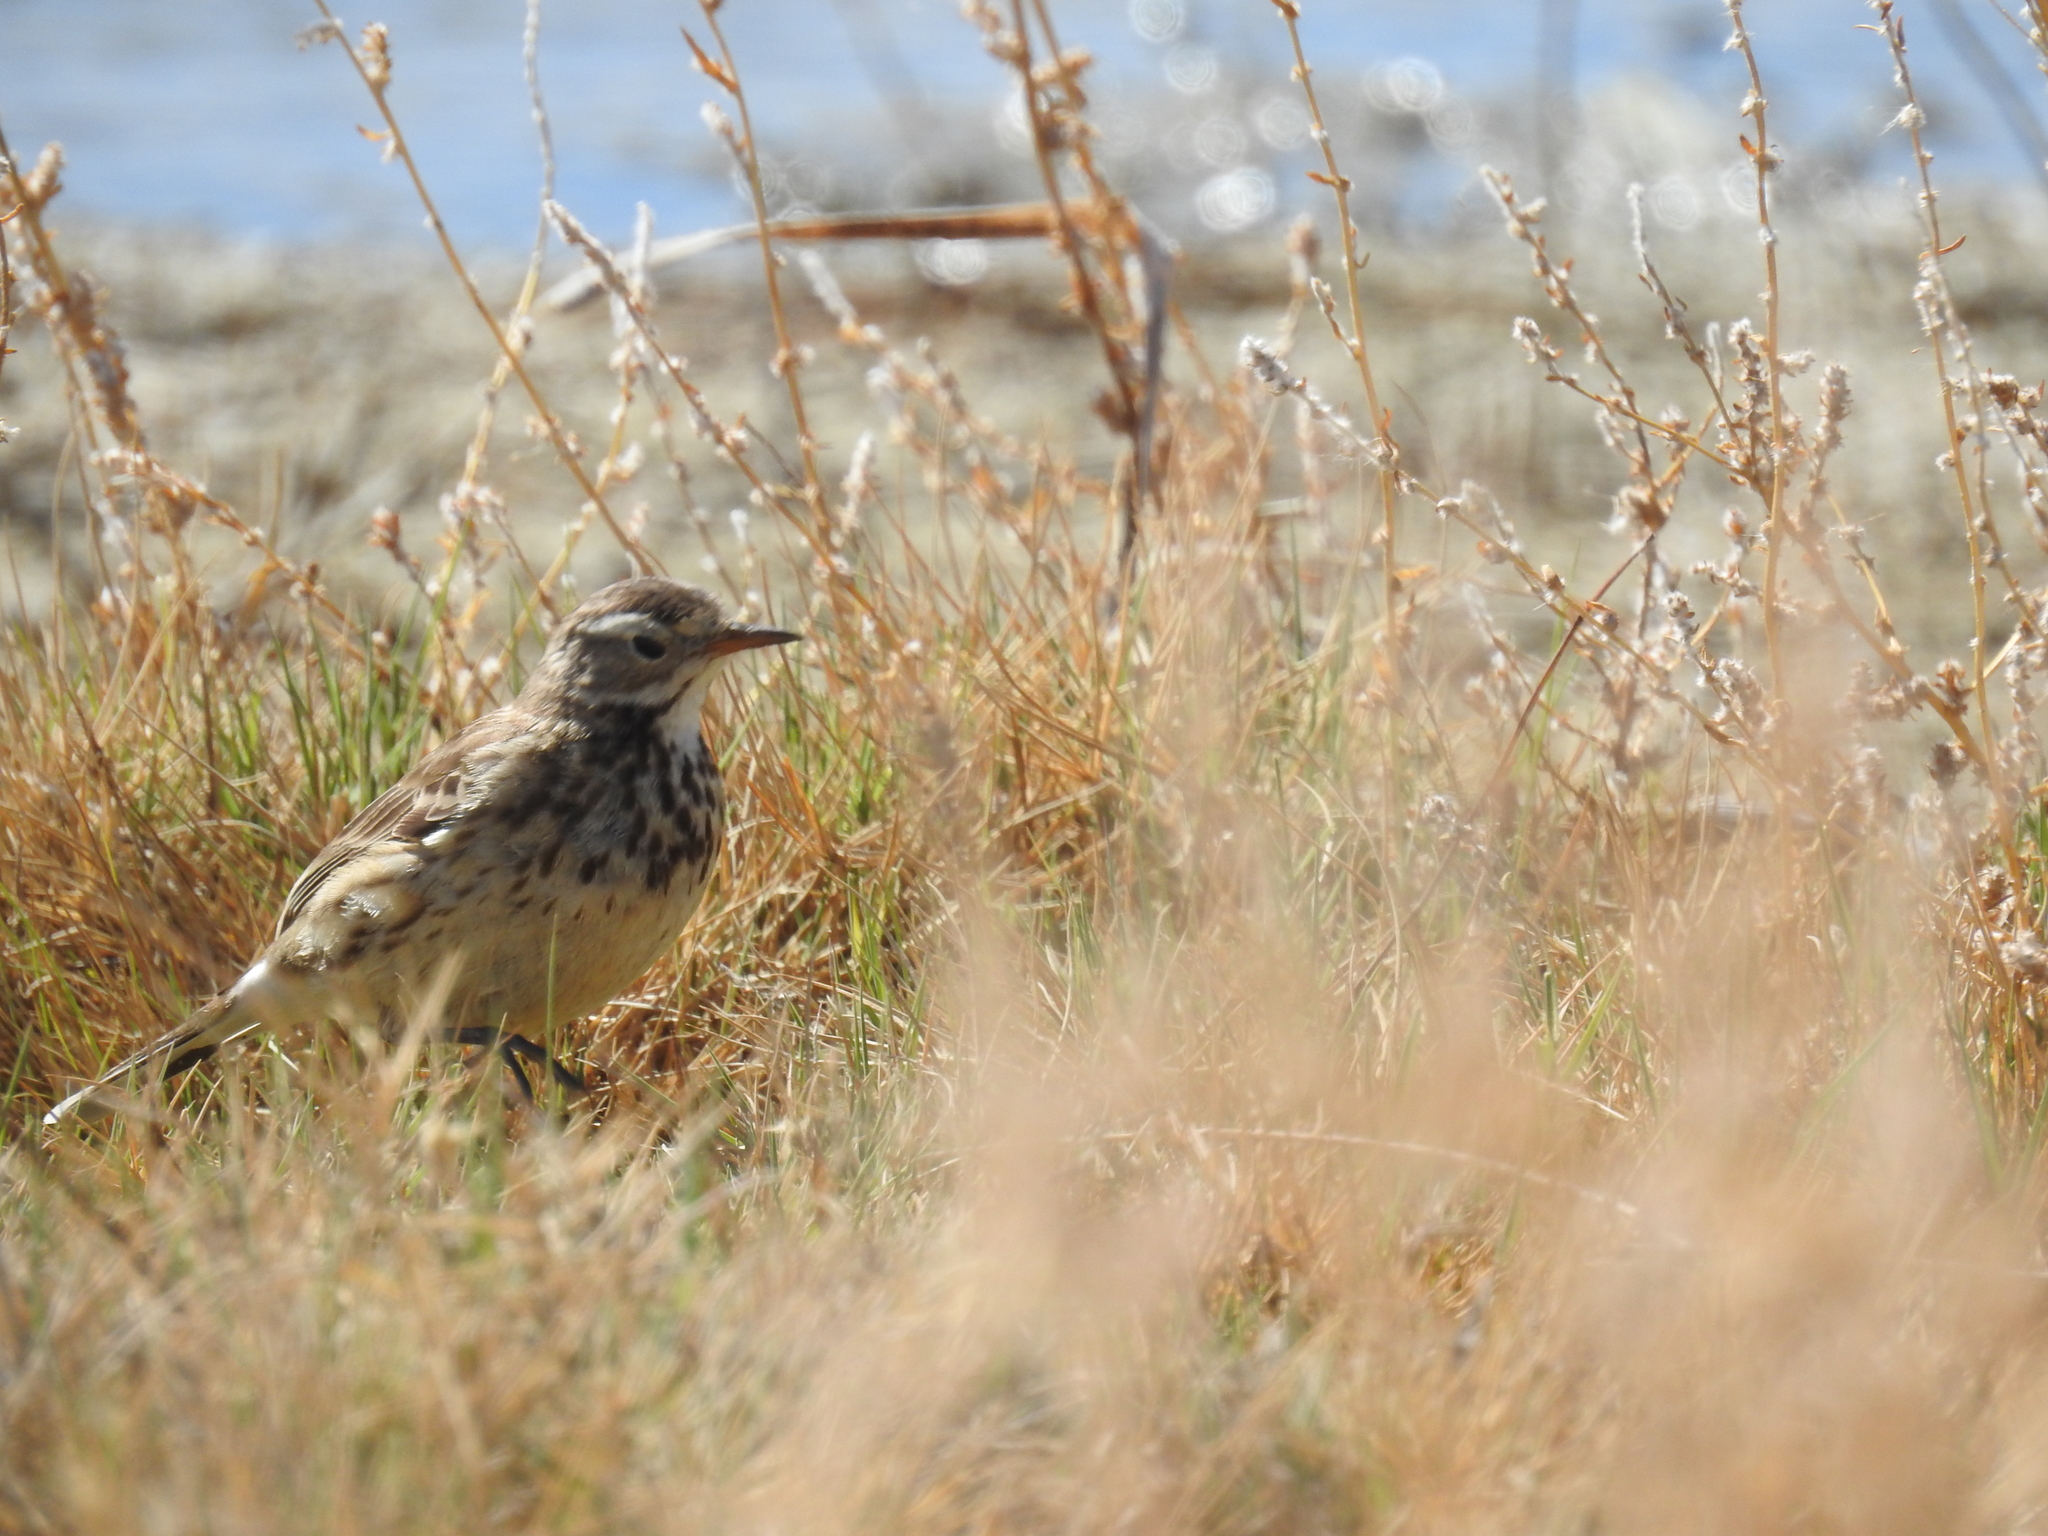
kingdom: Animalia
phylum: Chordata
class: Aves
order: Passeriformes
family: Motacillidae
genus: Anthus
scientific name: Anthus rubescens
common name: Buff-bellied pipit
